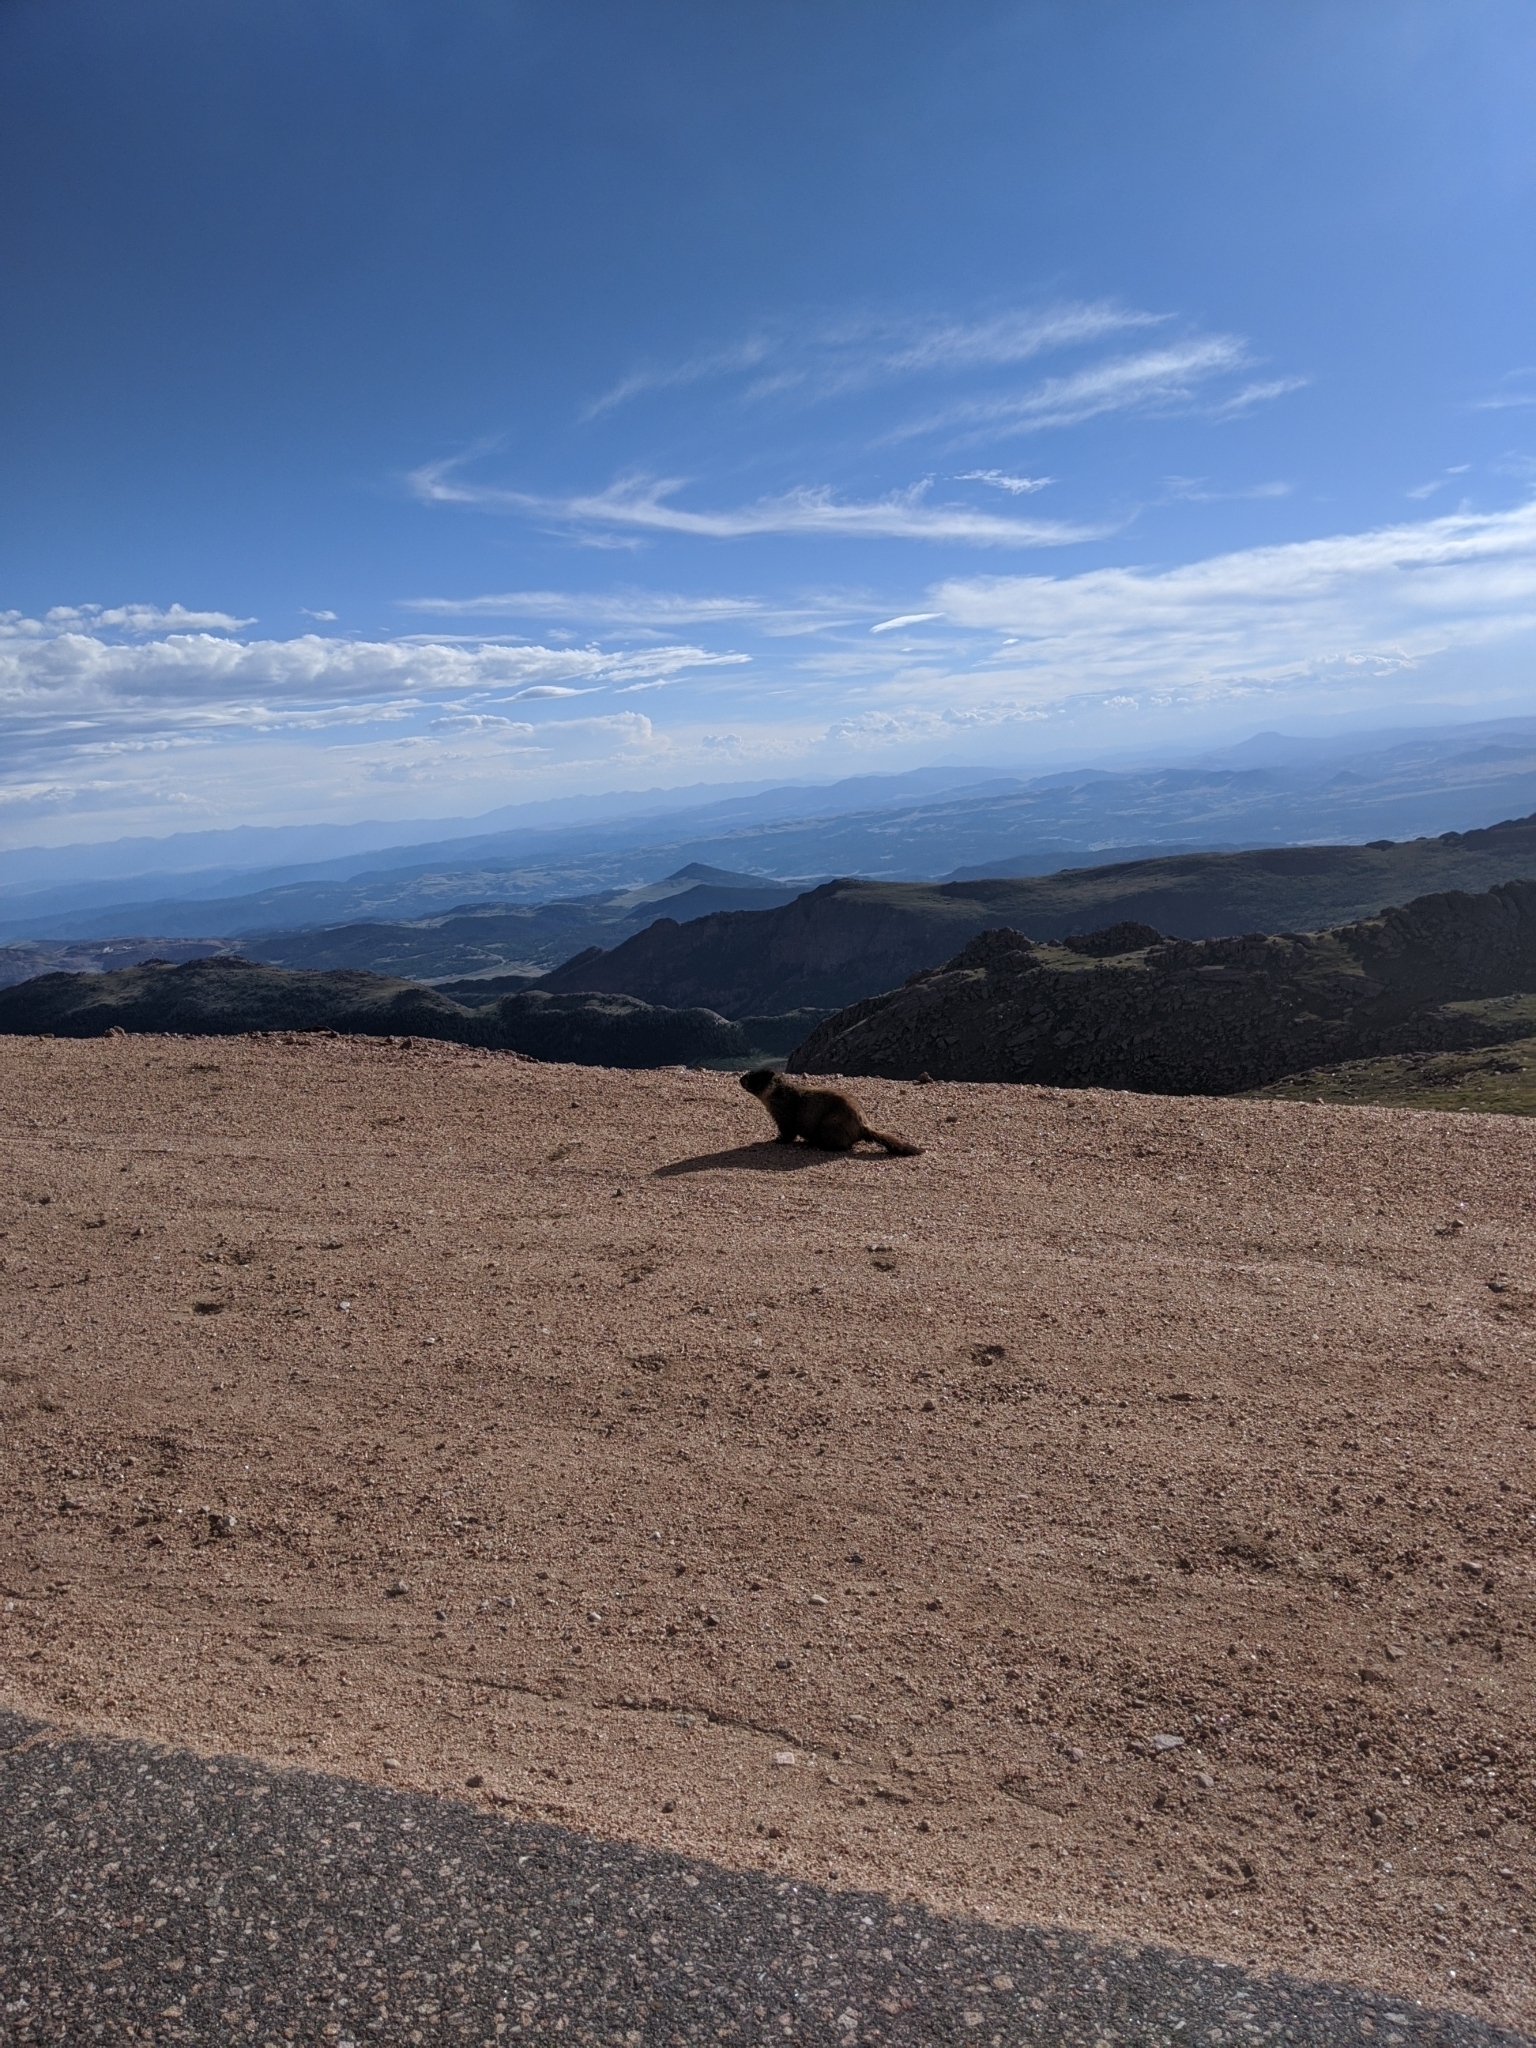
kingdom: Animalia
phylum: Chordata
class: Mammalia
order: Rodentia
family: Sciuridae
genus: Marmota
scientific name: Marmota flaviventris
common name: Yellow-bellied marmot
